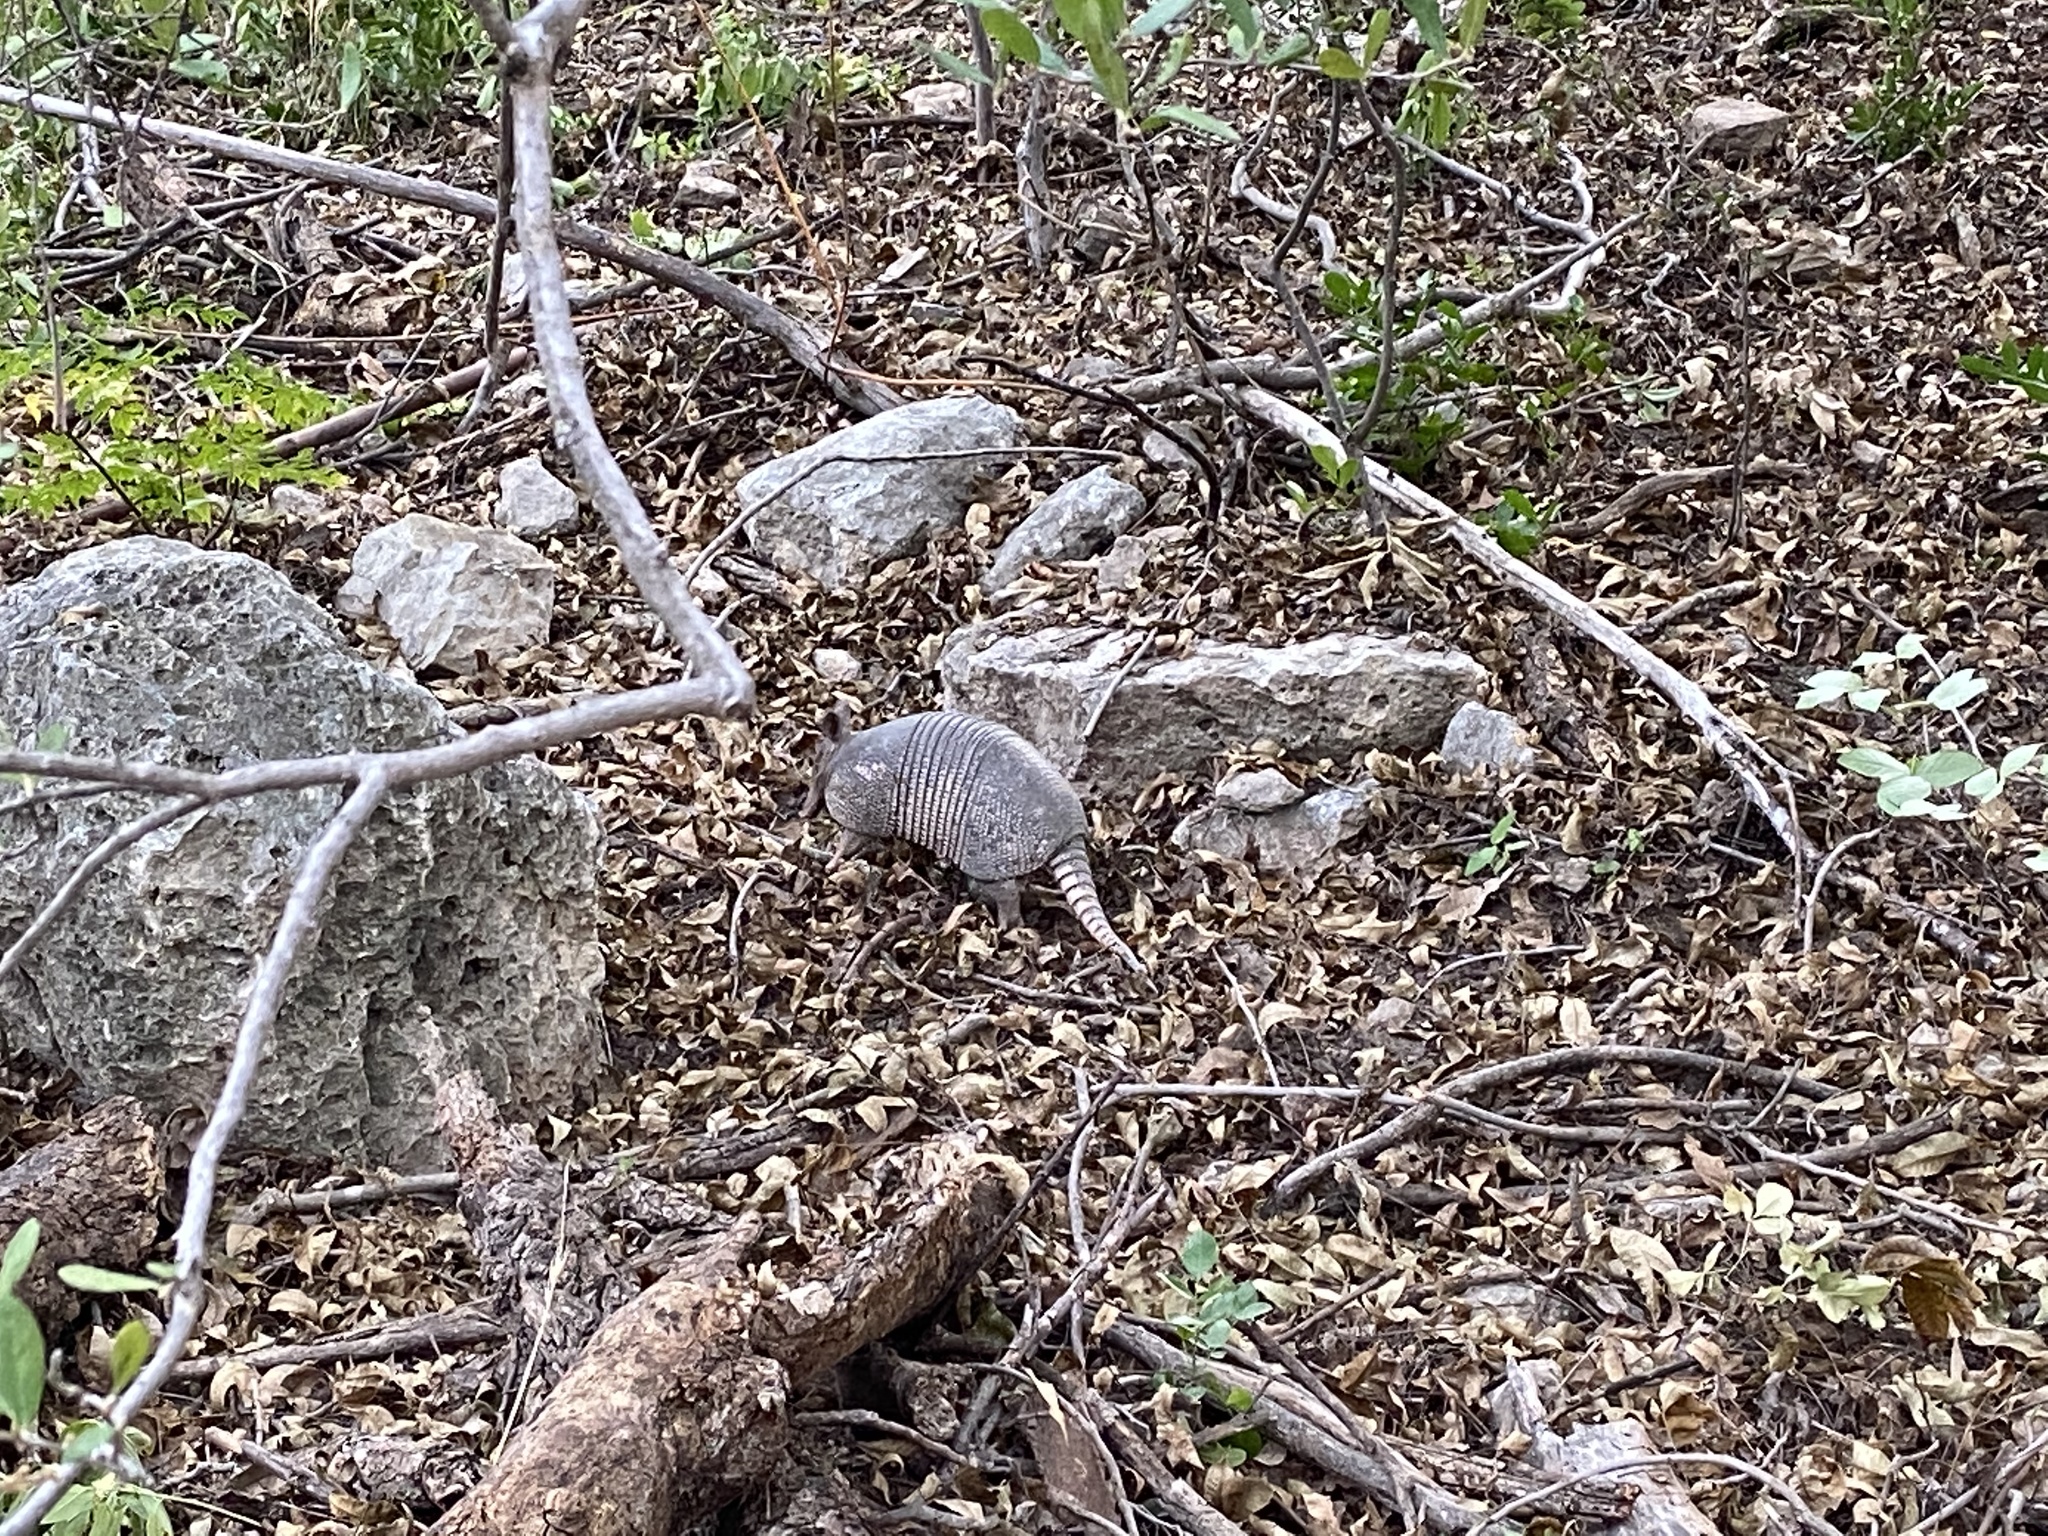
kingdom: Animalia
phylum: Chordata
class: Mammalia
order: Cingulata
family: Dasypodidae
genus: Dasypus
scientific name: Dasypus novemcinctus
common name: Nine-banded armadillo
